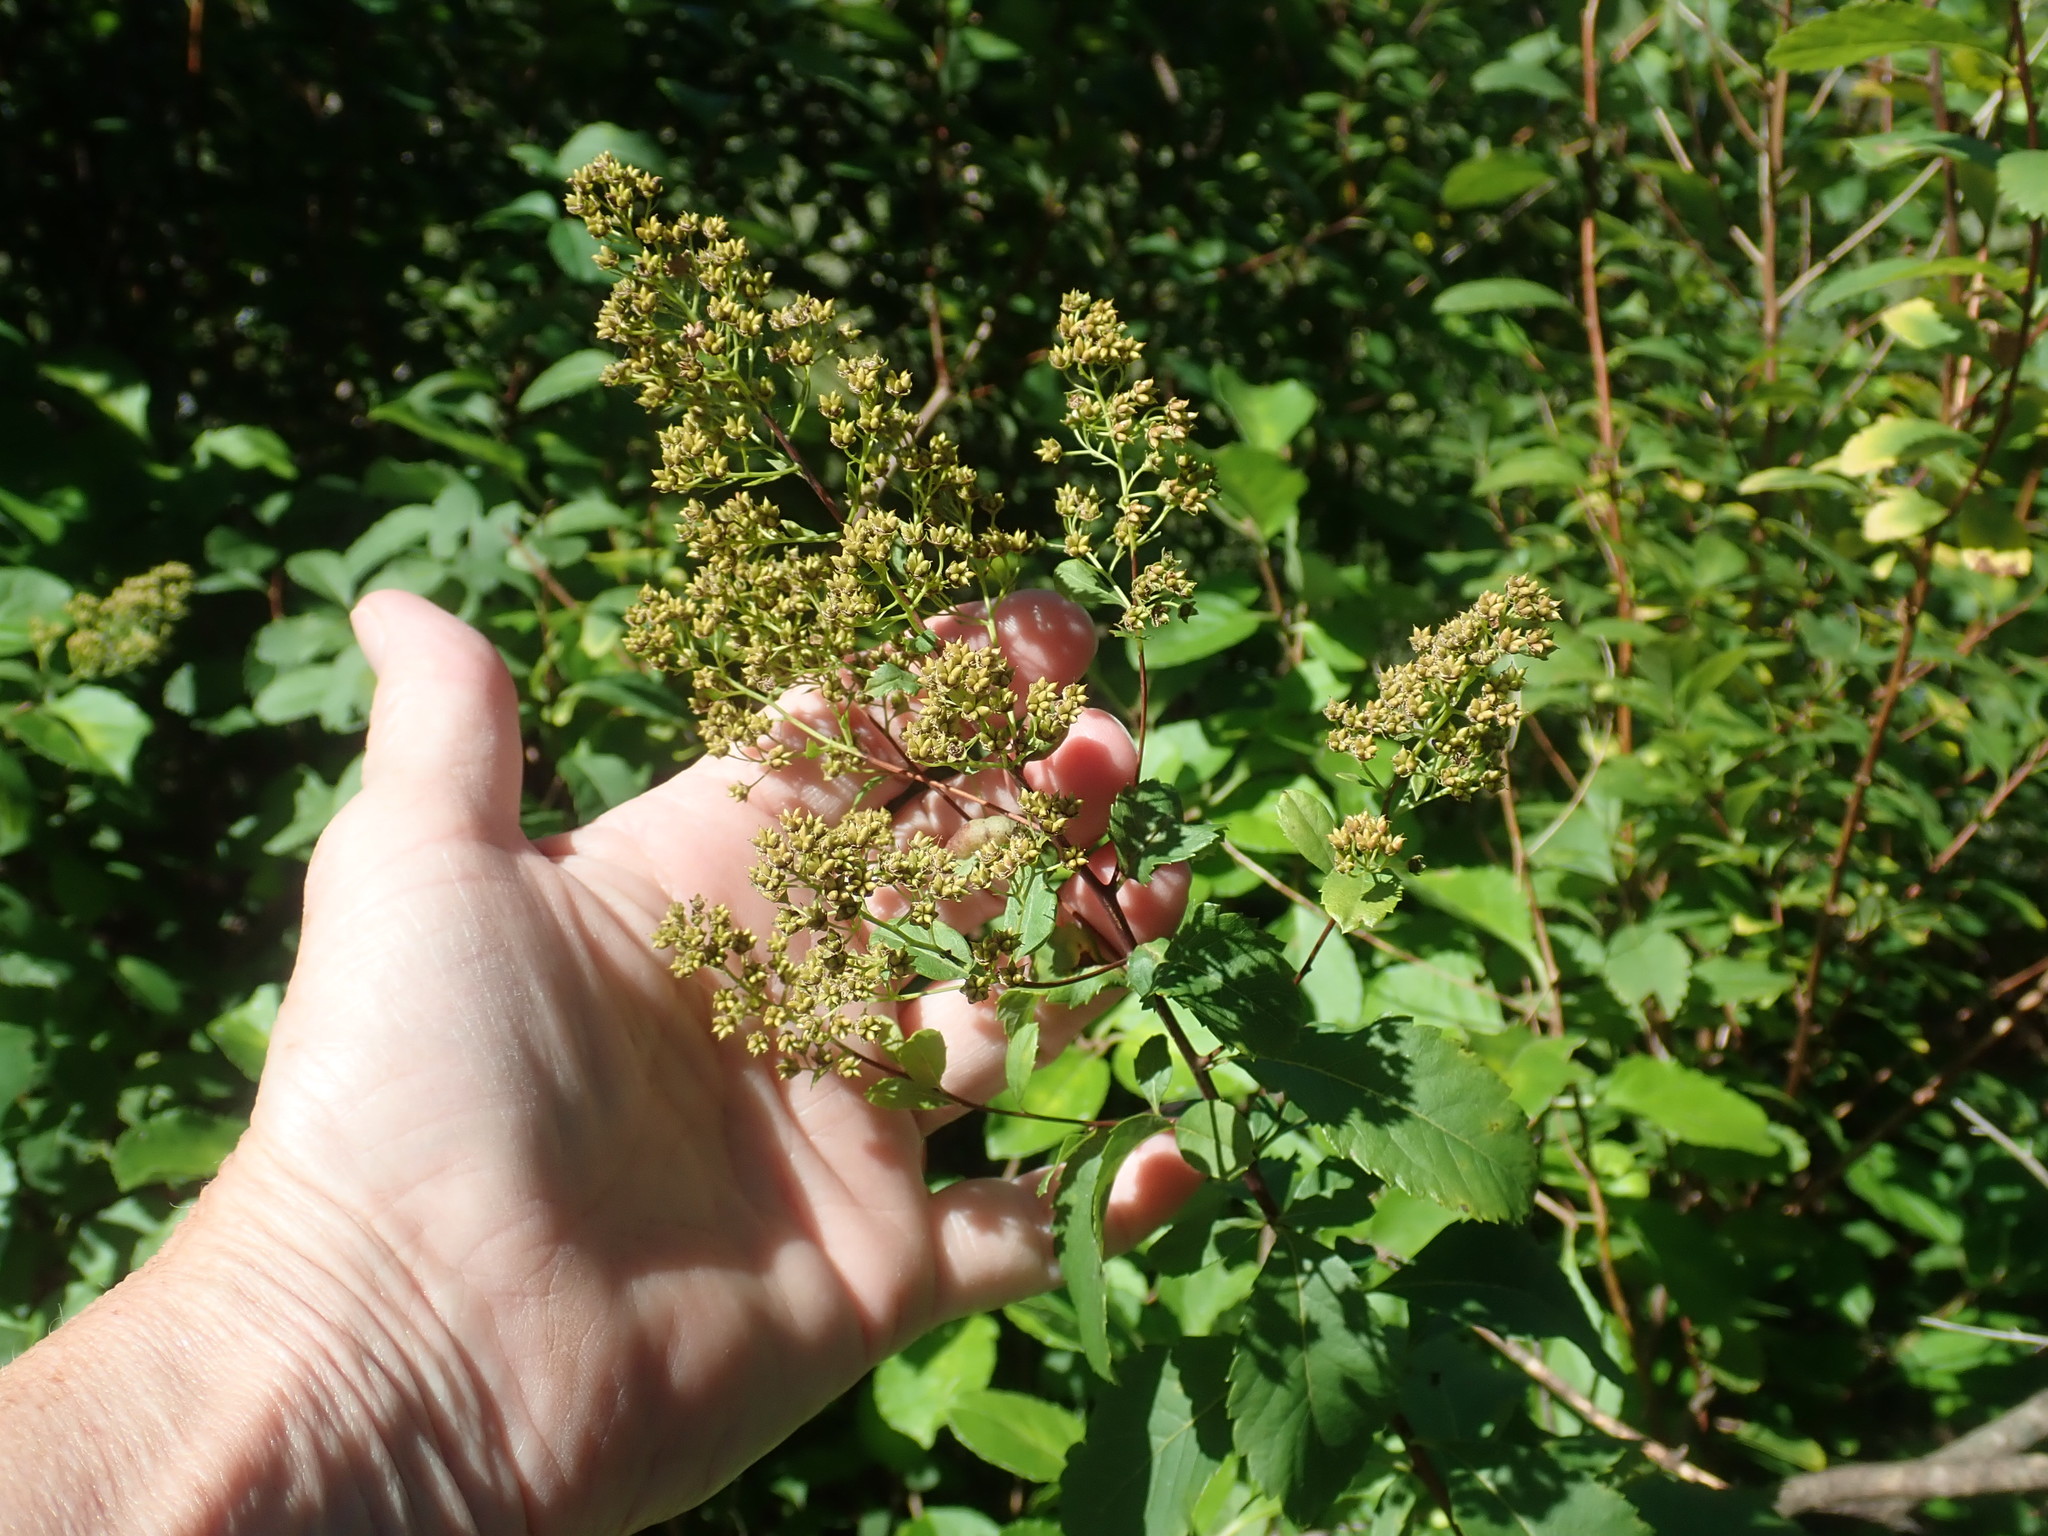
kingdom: Plantae
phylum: Tracheophyta
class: Magnoliopsida
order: Rosales
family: Rosaceae
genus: Spiraea
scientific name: Spiraea alba
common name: Pale bridewort
